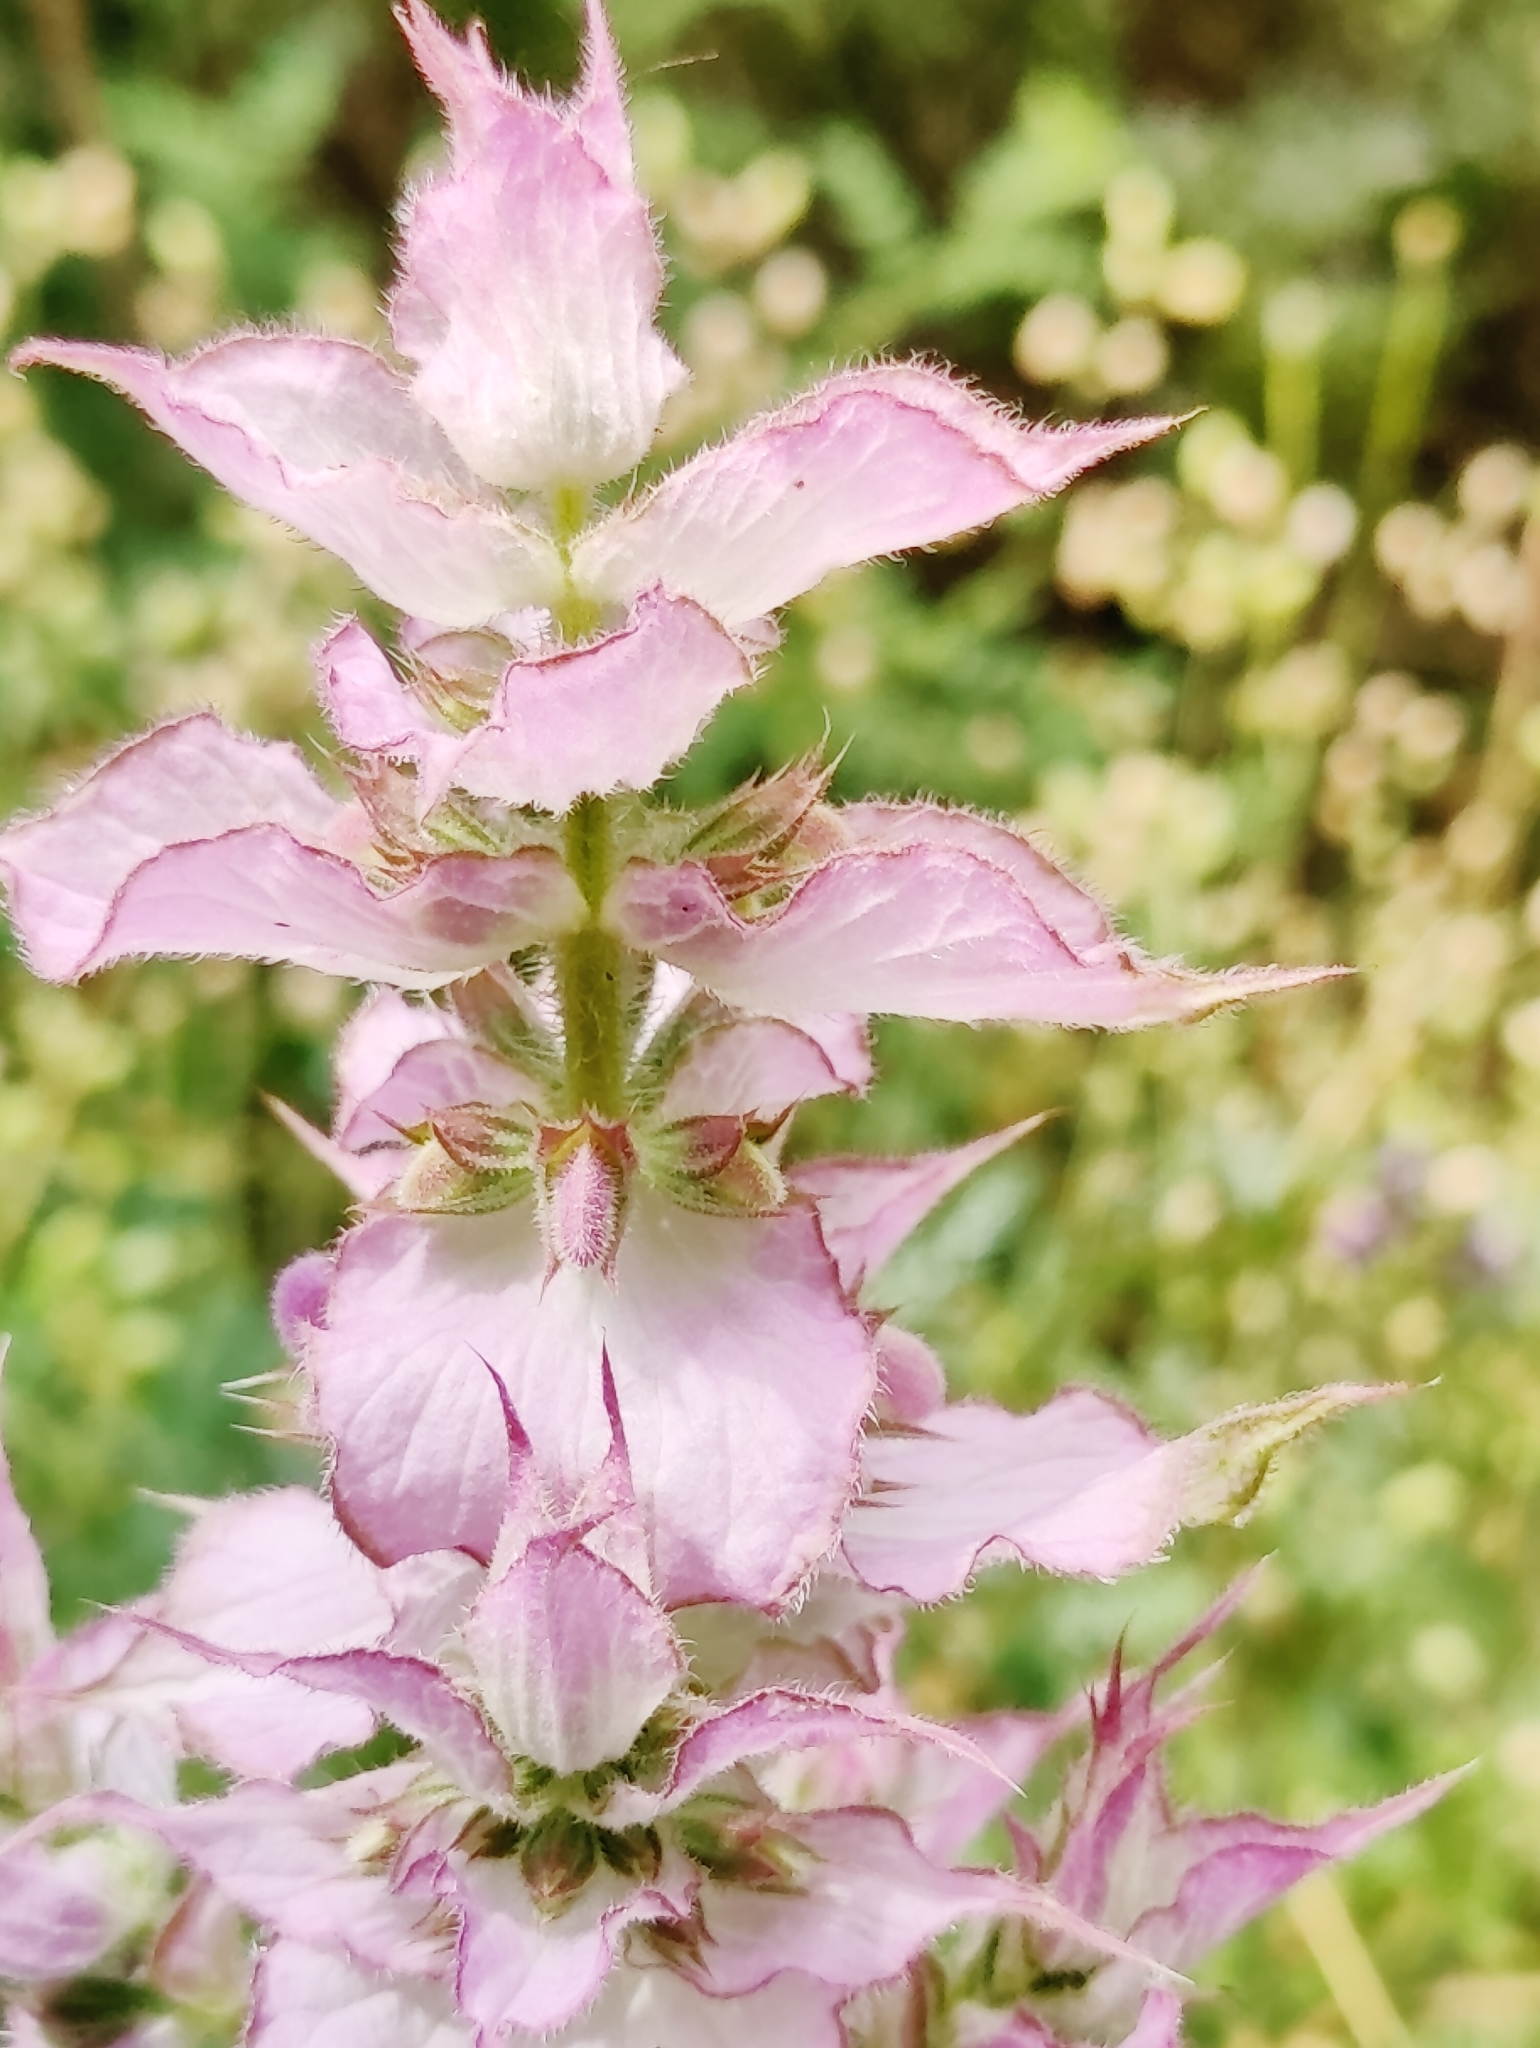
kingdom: Plantae
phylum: Tracheophyta
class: Magnoliopsida
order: Lamiales
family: Lamiaceae
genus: Salvia
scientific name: Salvia sclarea
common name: Clary
